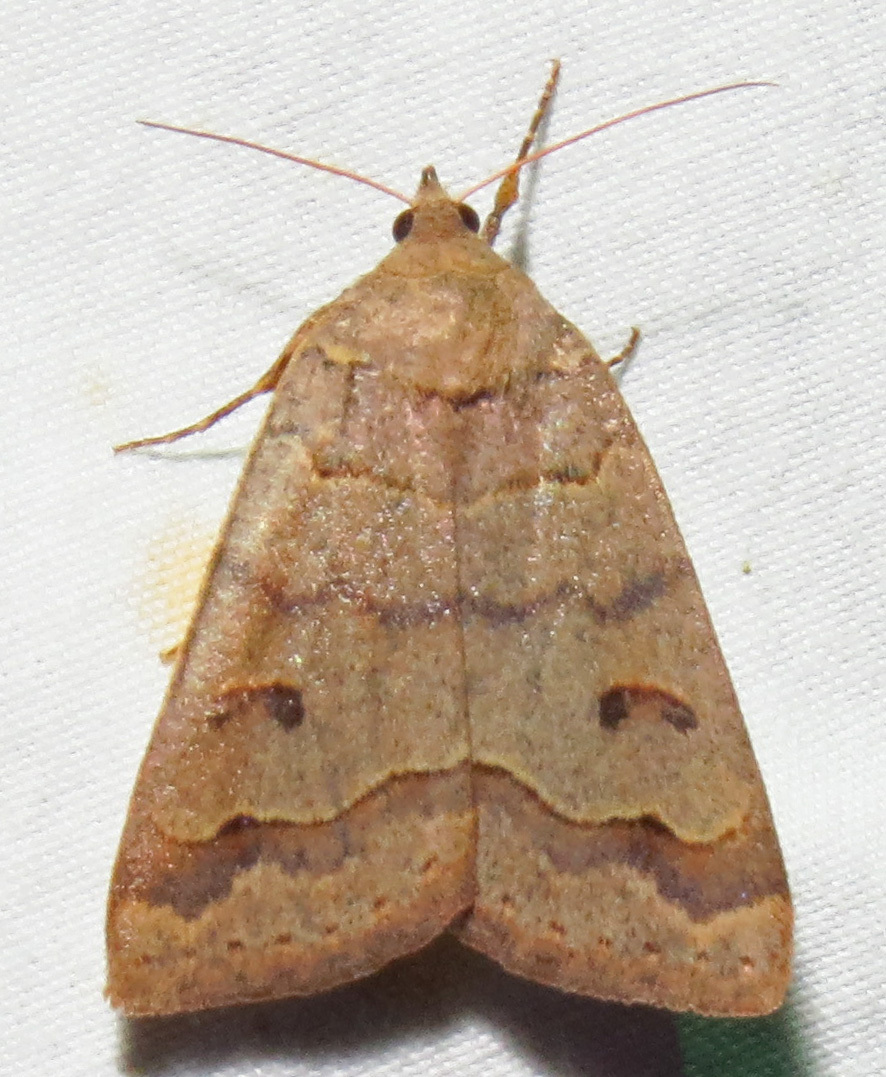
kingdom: Animalia
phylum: Arthropoda
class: Insecta
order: Lepidoptera
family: Erebidae
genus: Phoberia
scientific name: Phoberia atomaris
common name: Common oak moth
